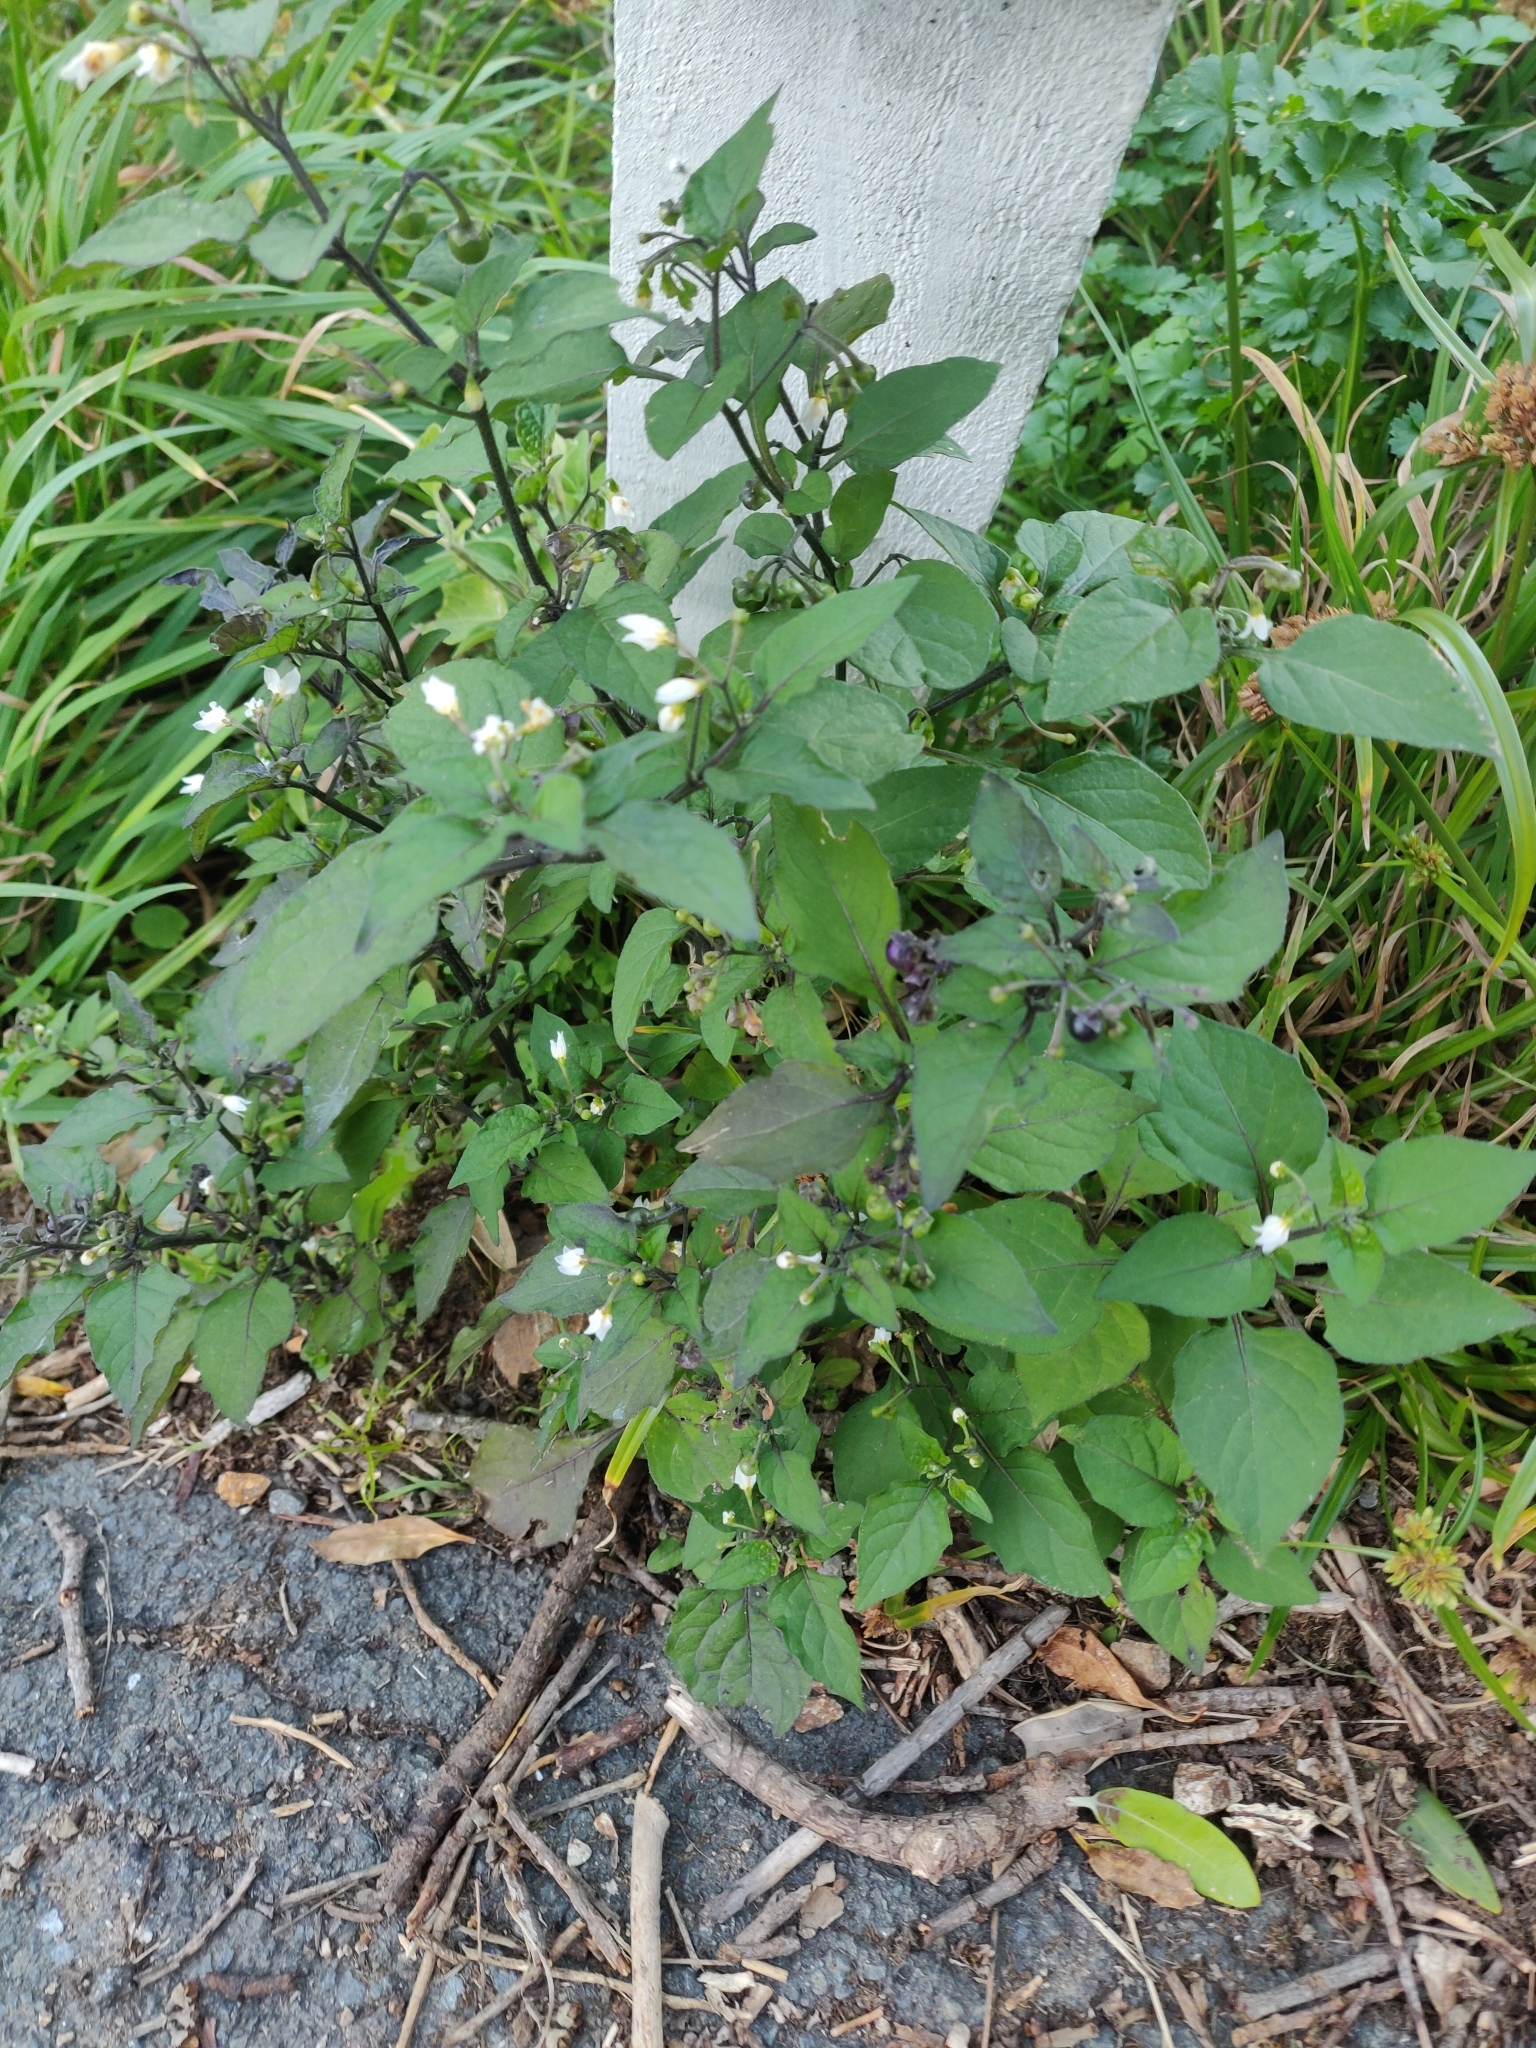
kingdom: Plantae
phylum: Tracheophyta
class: Magnoliopsida
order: Solanales
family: Solanaceae
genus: Solanum
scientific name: Solanum nigrum
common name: Black nightshade
